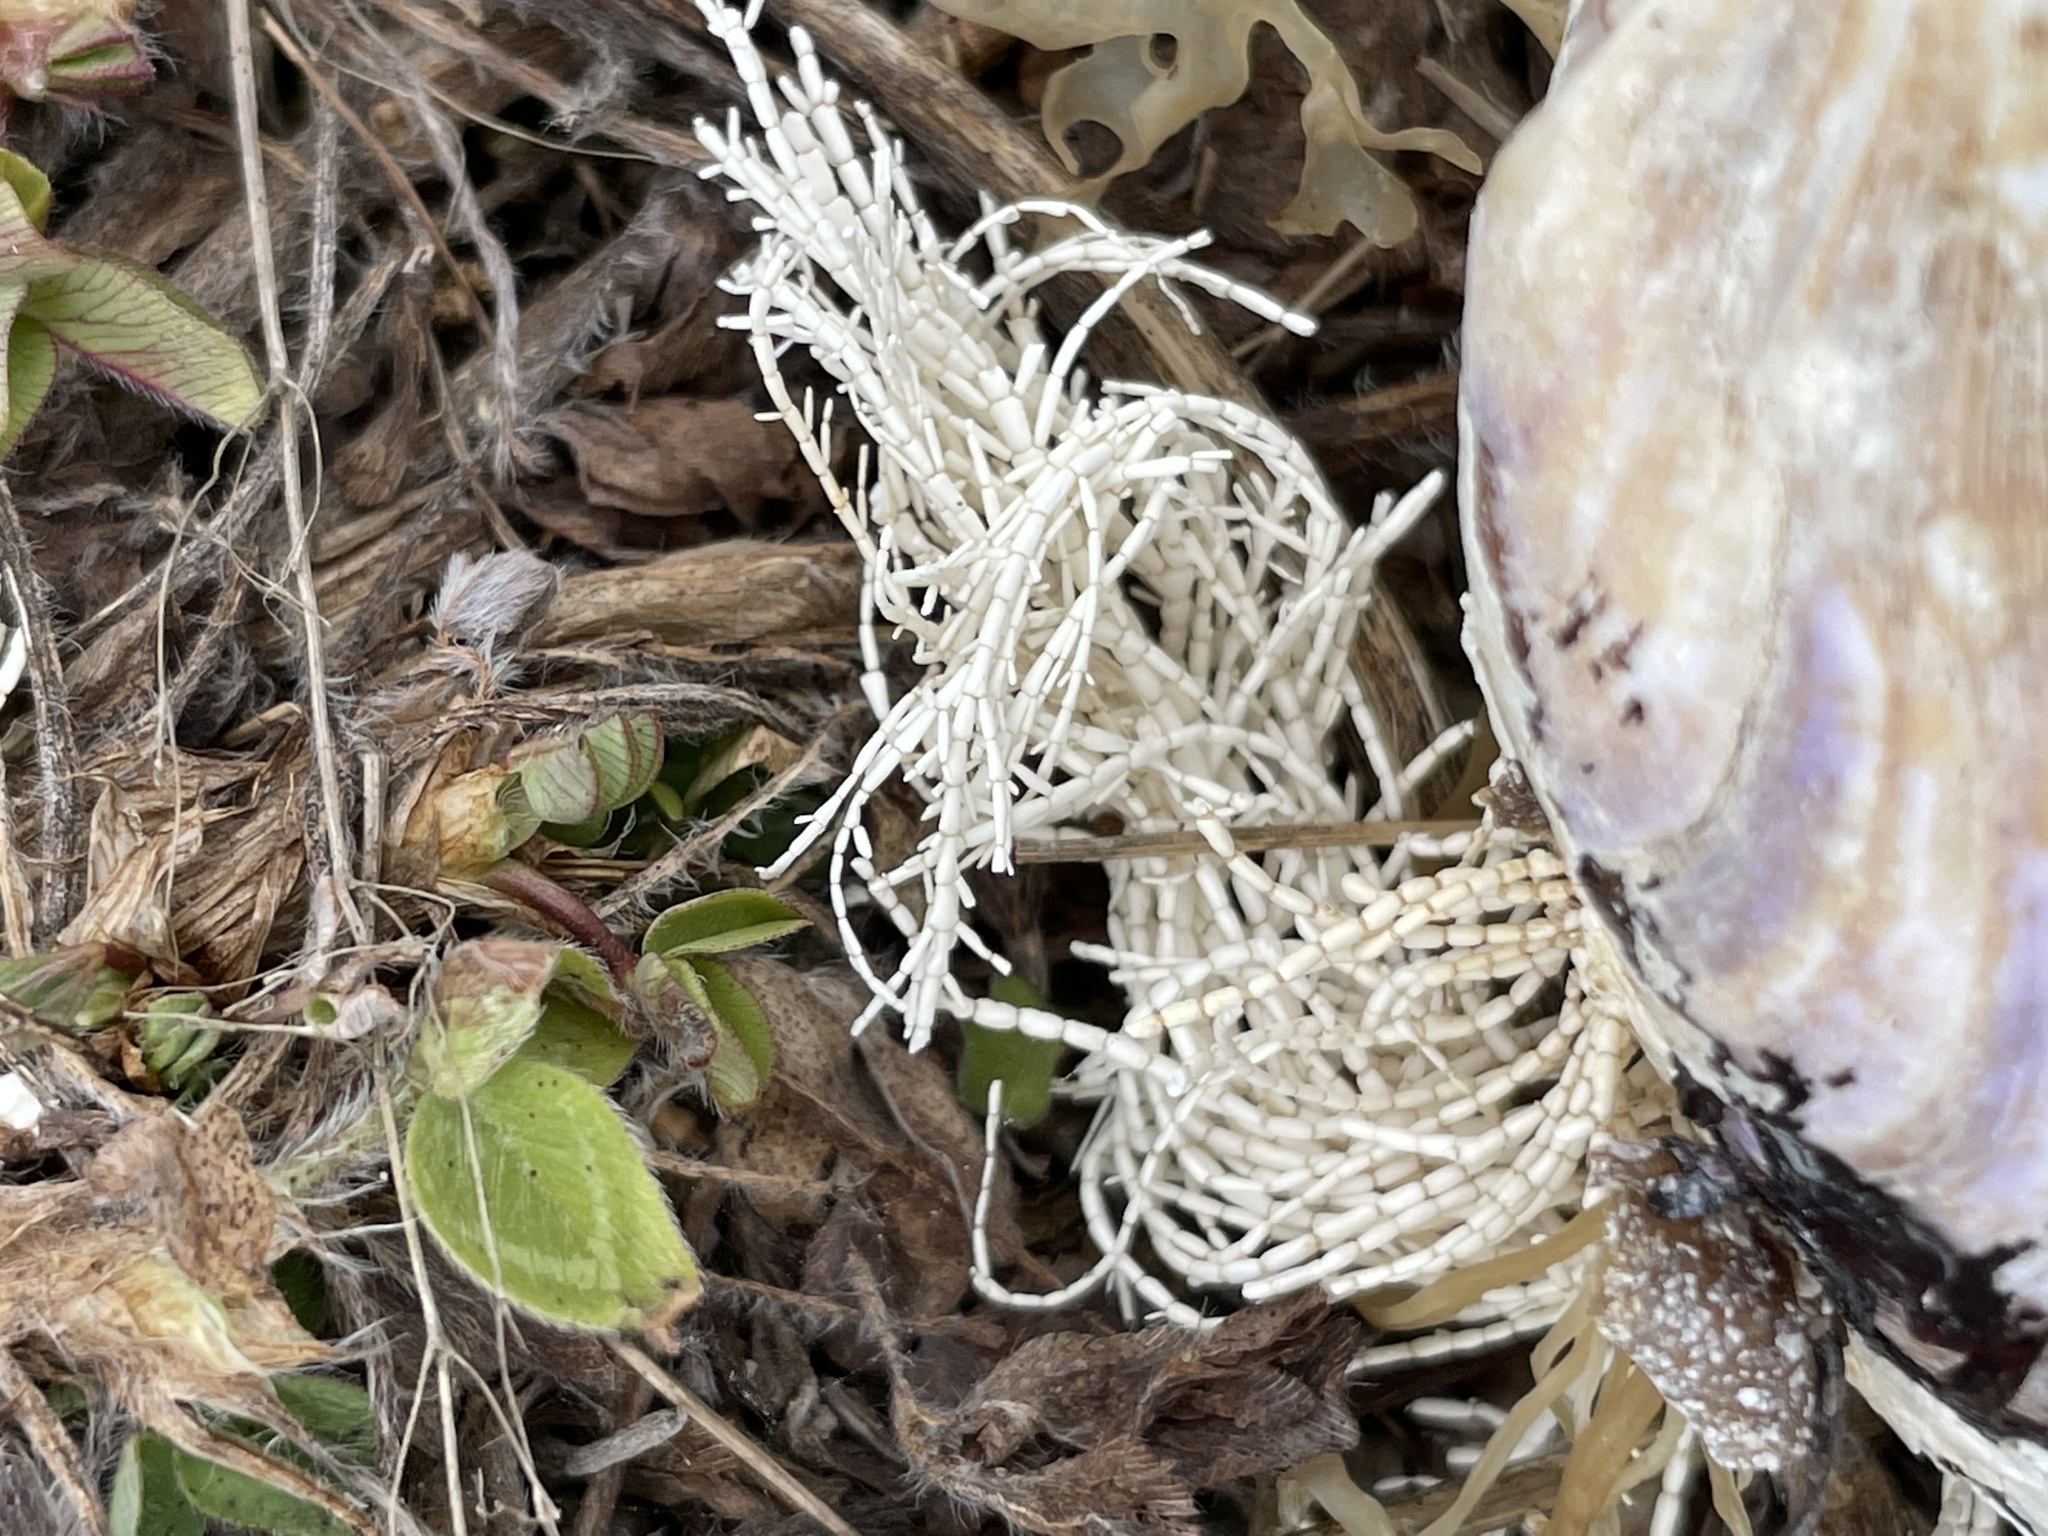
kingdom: Plantae
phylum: Rhodophyta
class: Florideophyceae
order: Corallinales
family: Corallinaceae
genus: Corallina
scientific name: Corallina officinalis
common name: Coral weed
